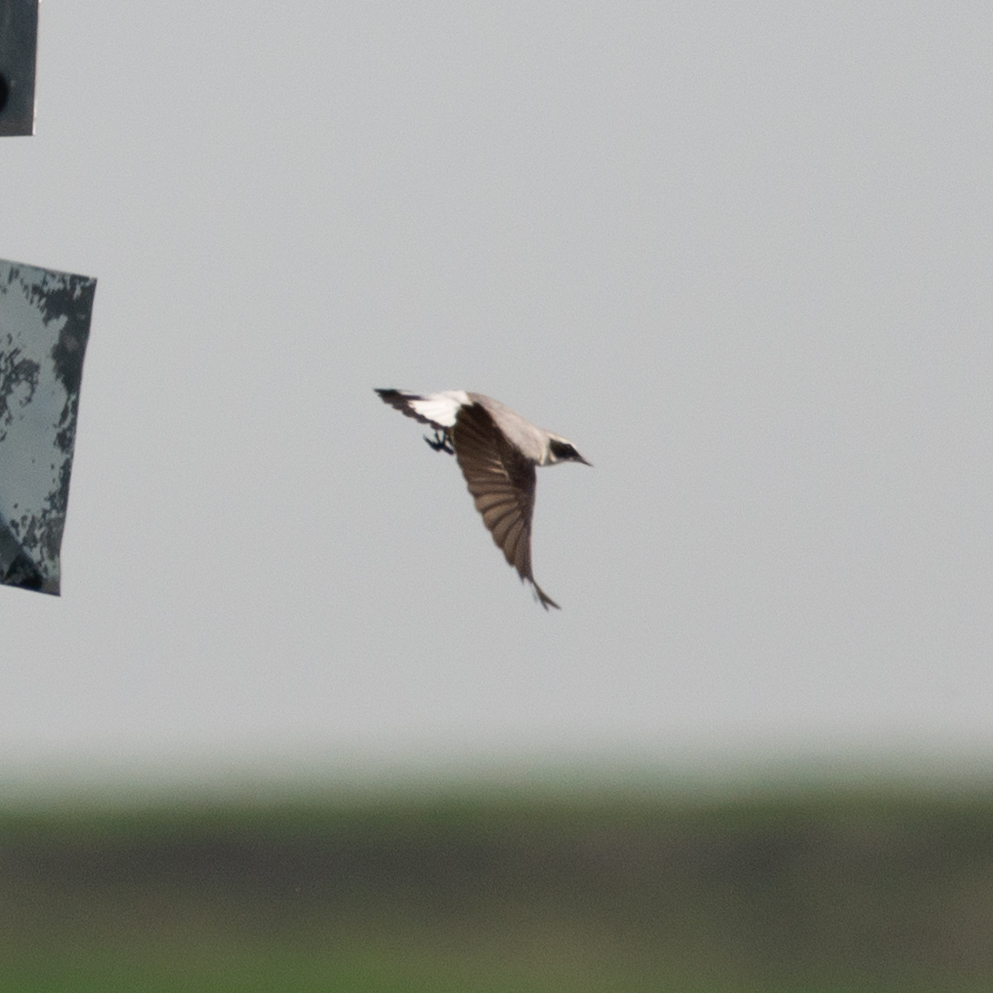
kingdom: Animalia
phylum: Chordata
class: Aves
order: Passeriformes
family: Muscicapidae
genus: Oenanthe
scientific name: Oenanthe oenanthe
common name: Northern wheatear
